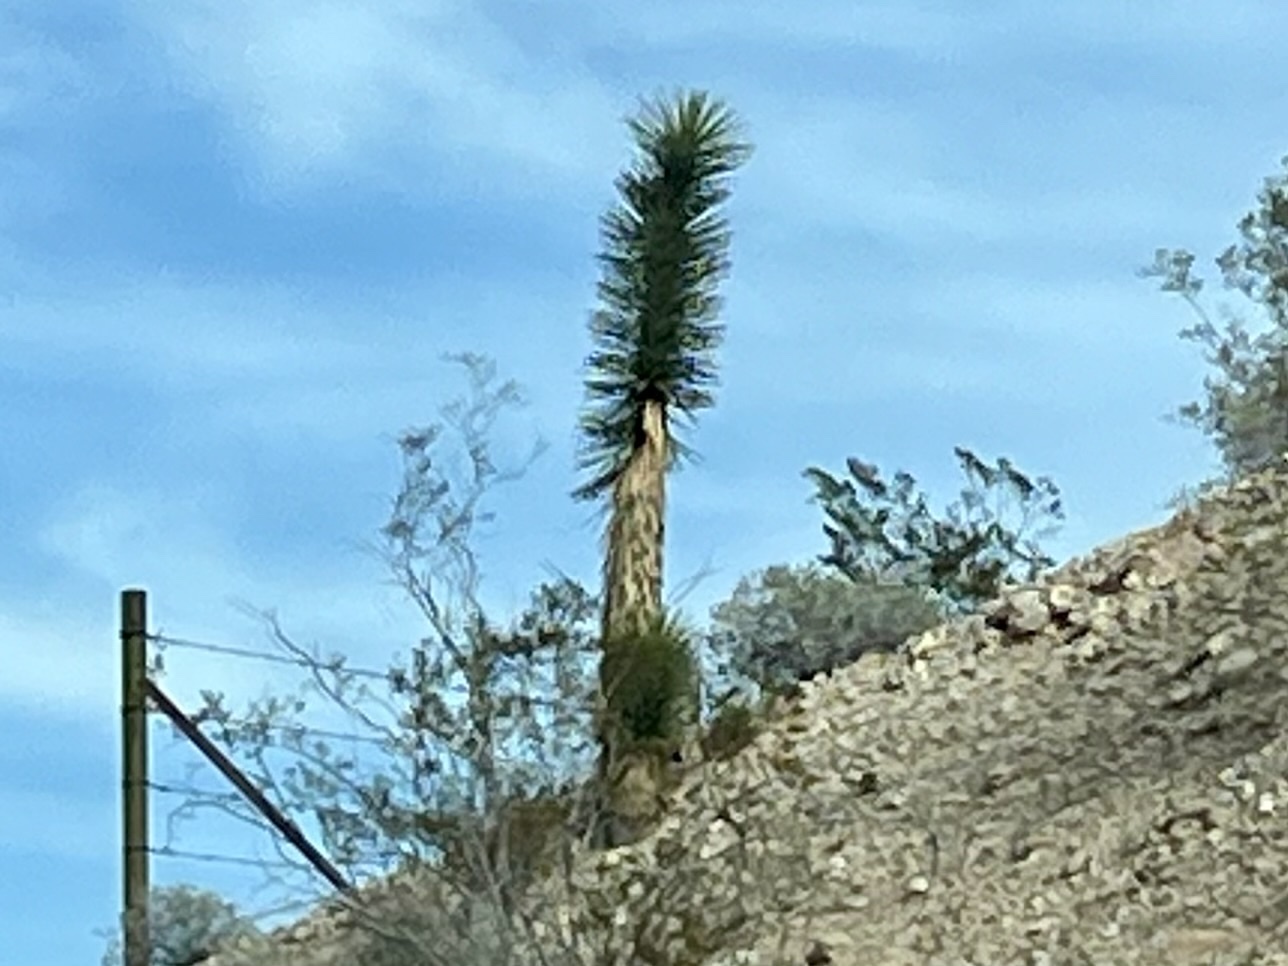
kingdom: Plantae
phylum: Tracheophyta
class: Liliopsida
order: Asparagales
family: Asparagaceae
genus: Yucca
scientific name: Yucca brevifolia
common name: Joshua tree
